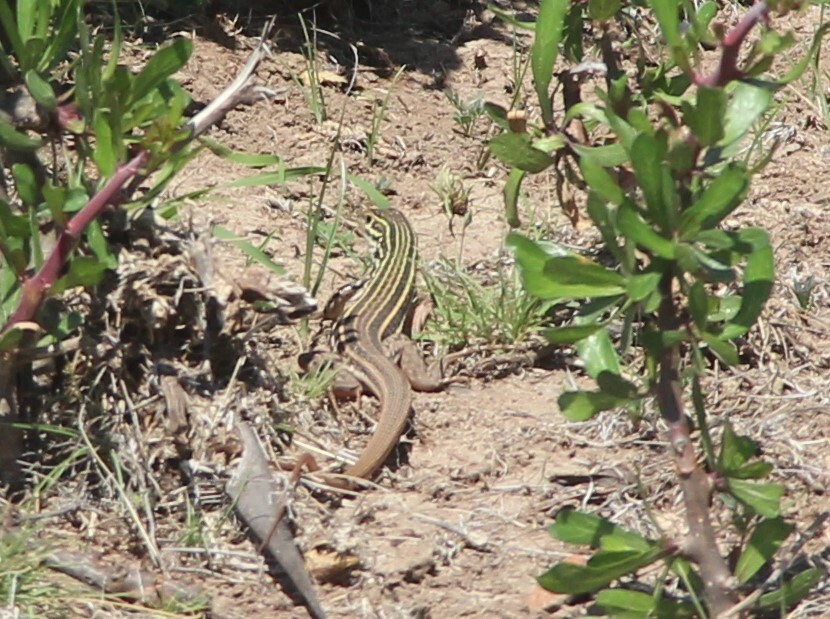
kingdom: Animalia
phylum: Chordata
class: Squamata
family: Teiidae
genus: Aspidoscelis
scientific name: Aspidoscelis gularis
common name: Eastern spotted whiptail
